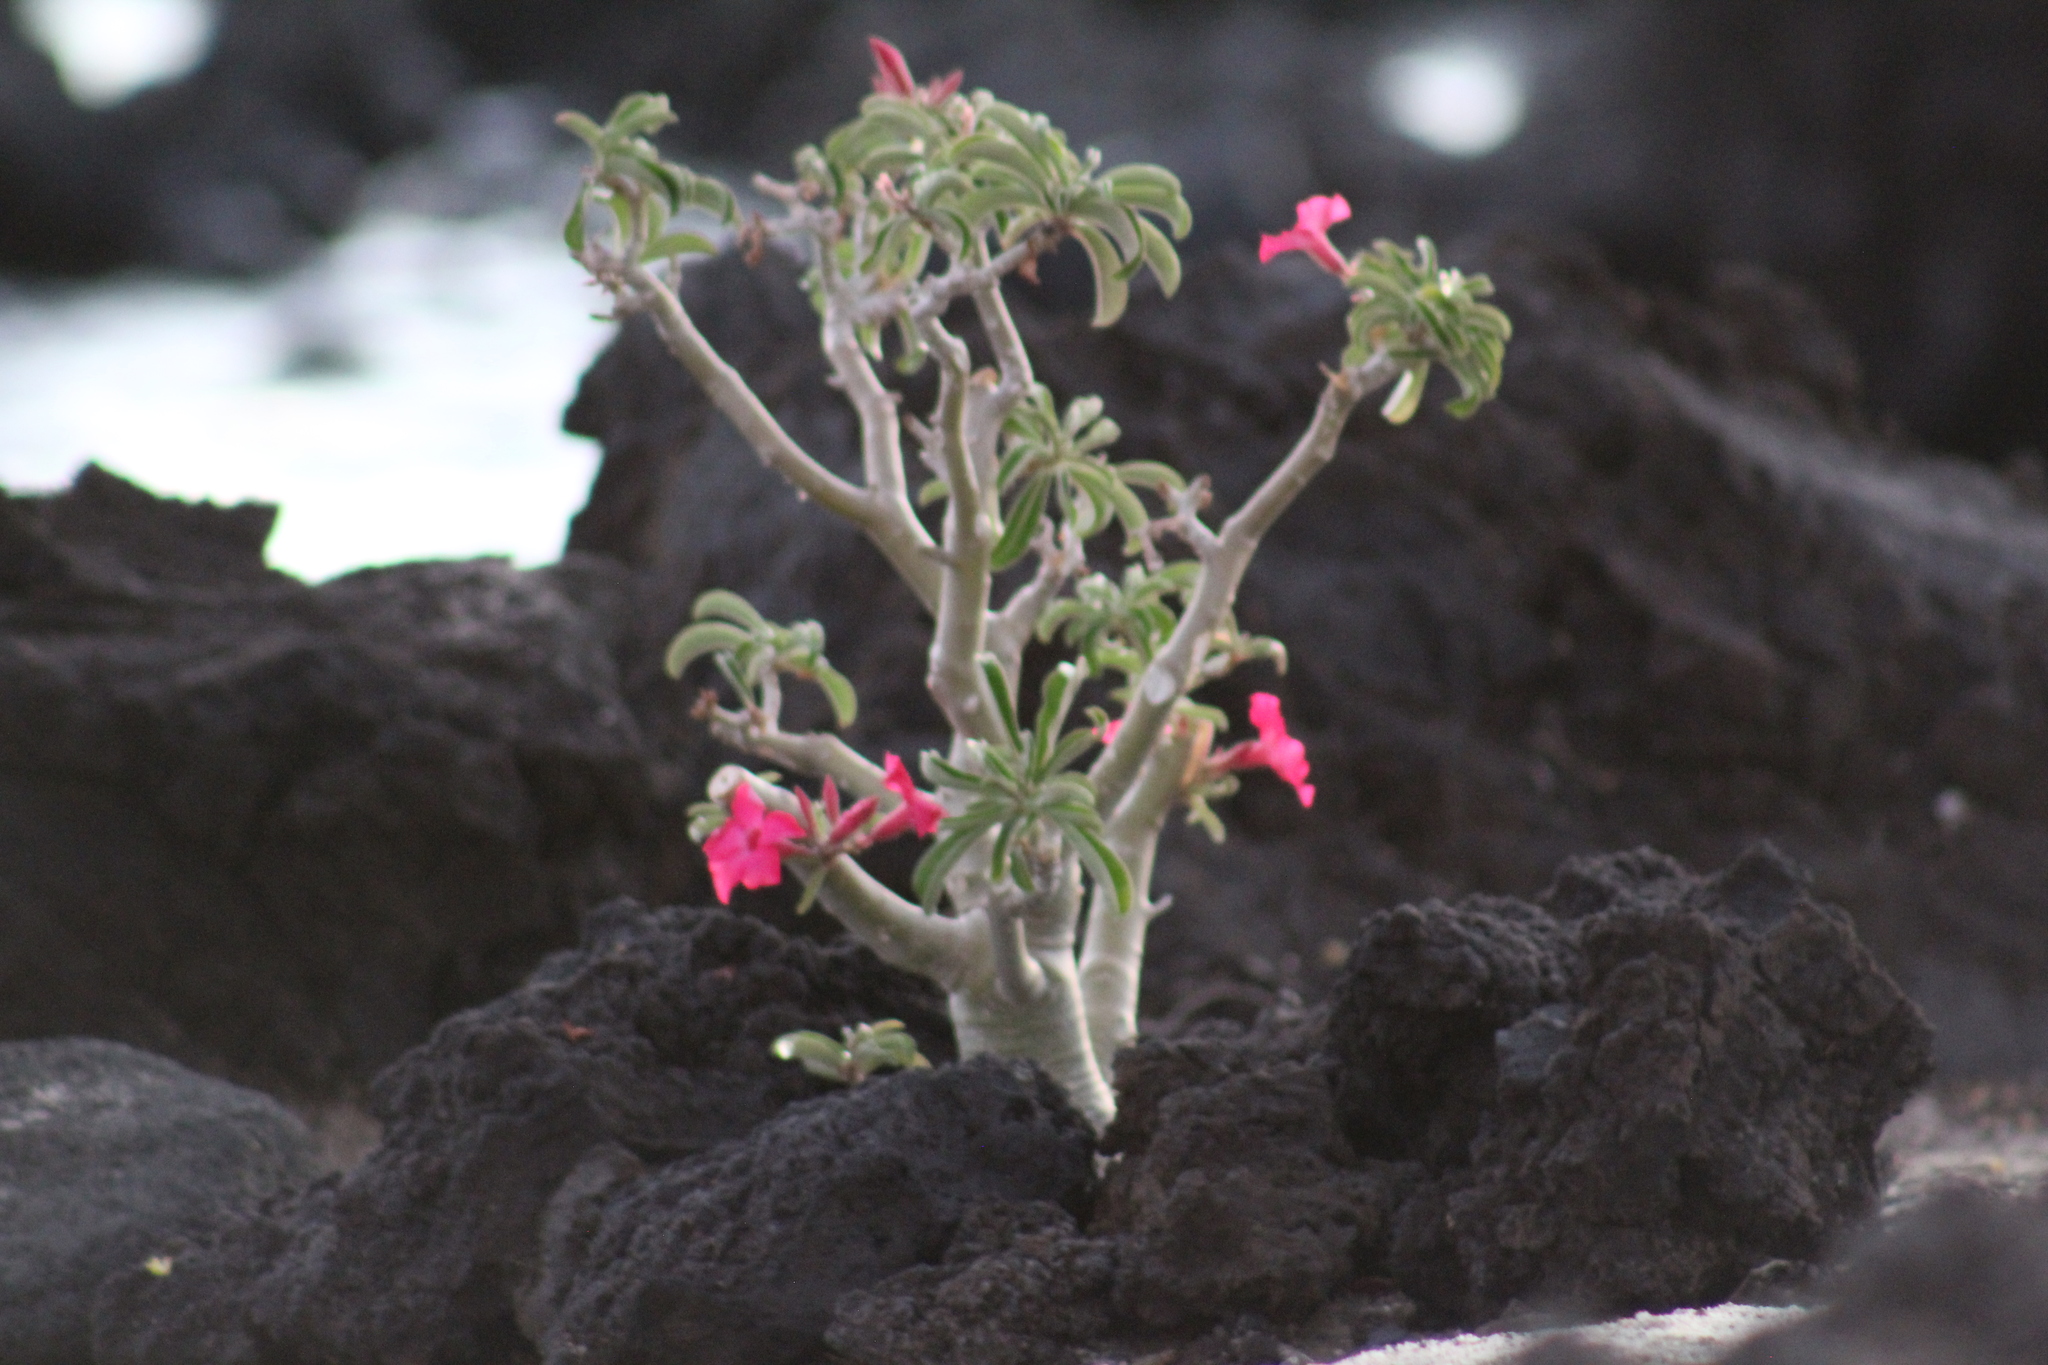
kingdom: Plantae
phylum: Tracheophyta
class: Magnoliopsida
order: Gentianales
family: Apocynaceae
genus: Adenium
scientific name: Adenium obesum
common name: Desert-rose
